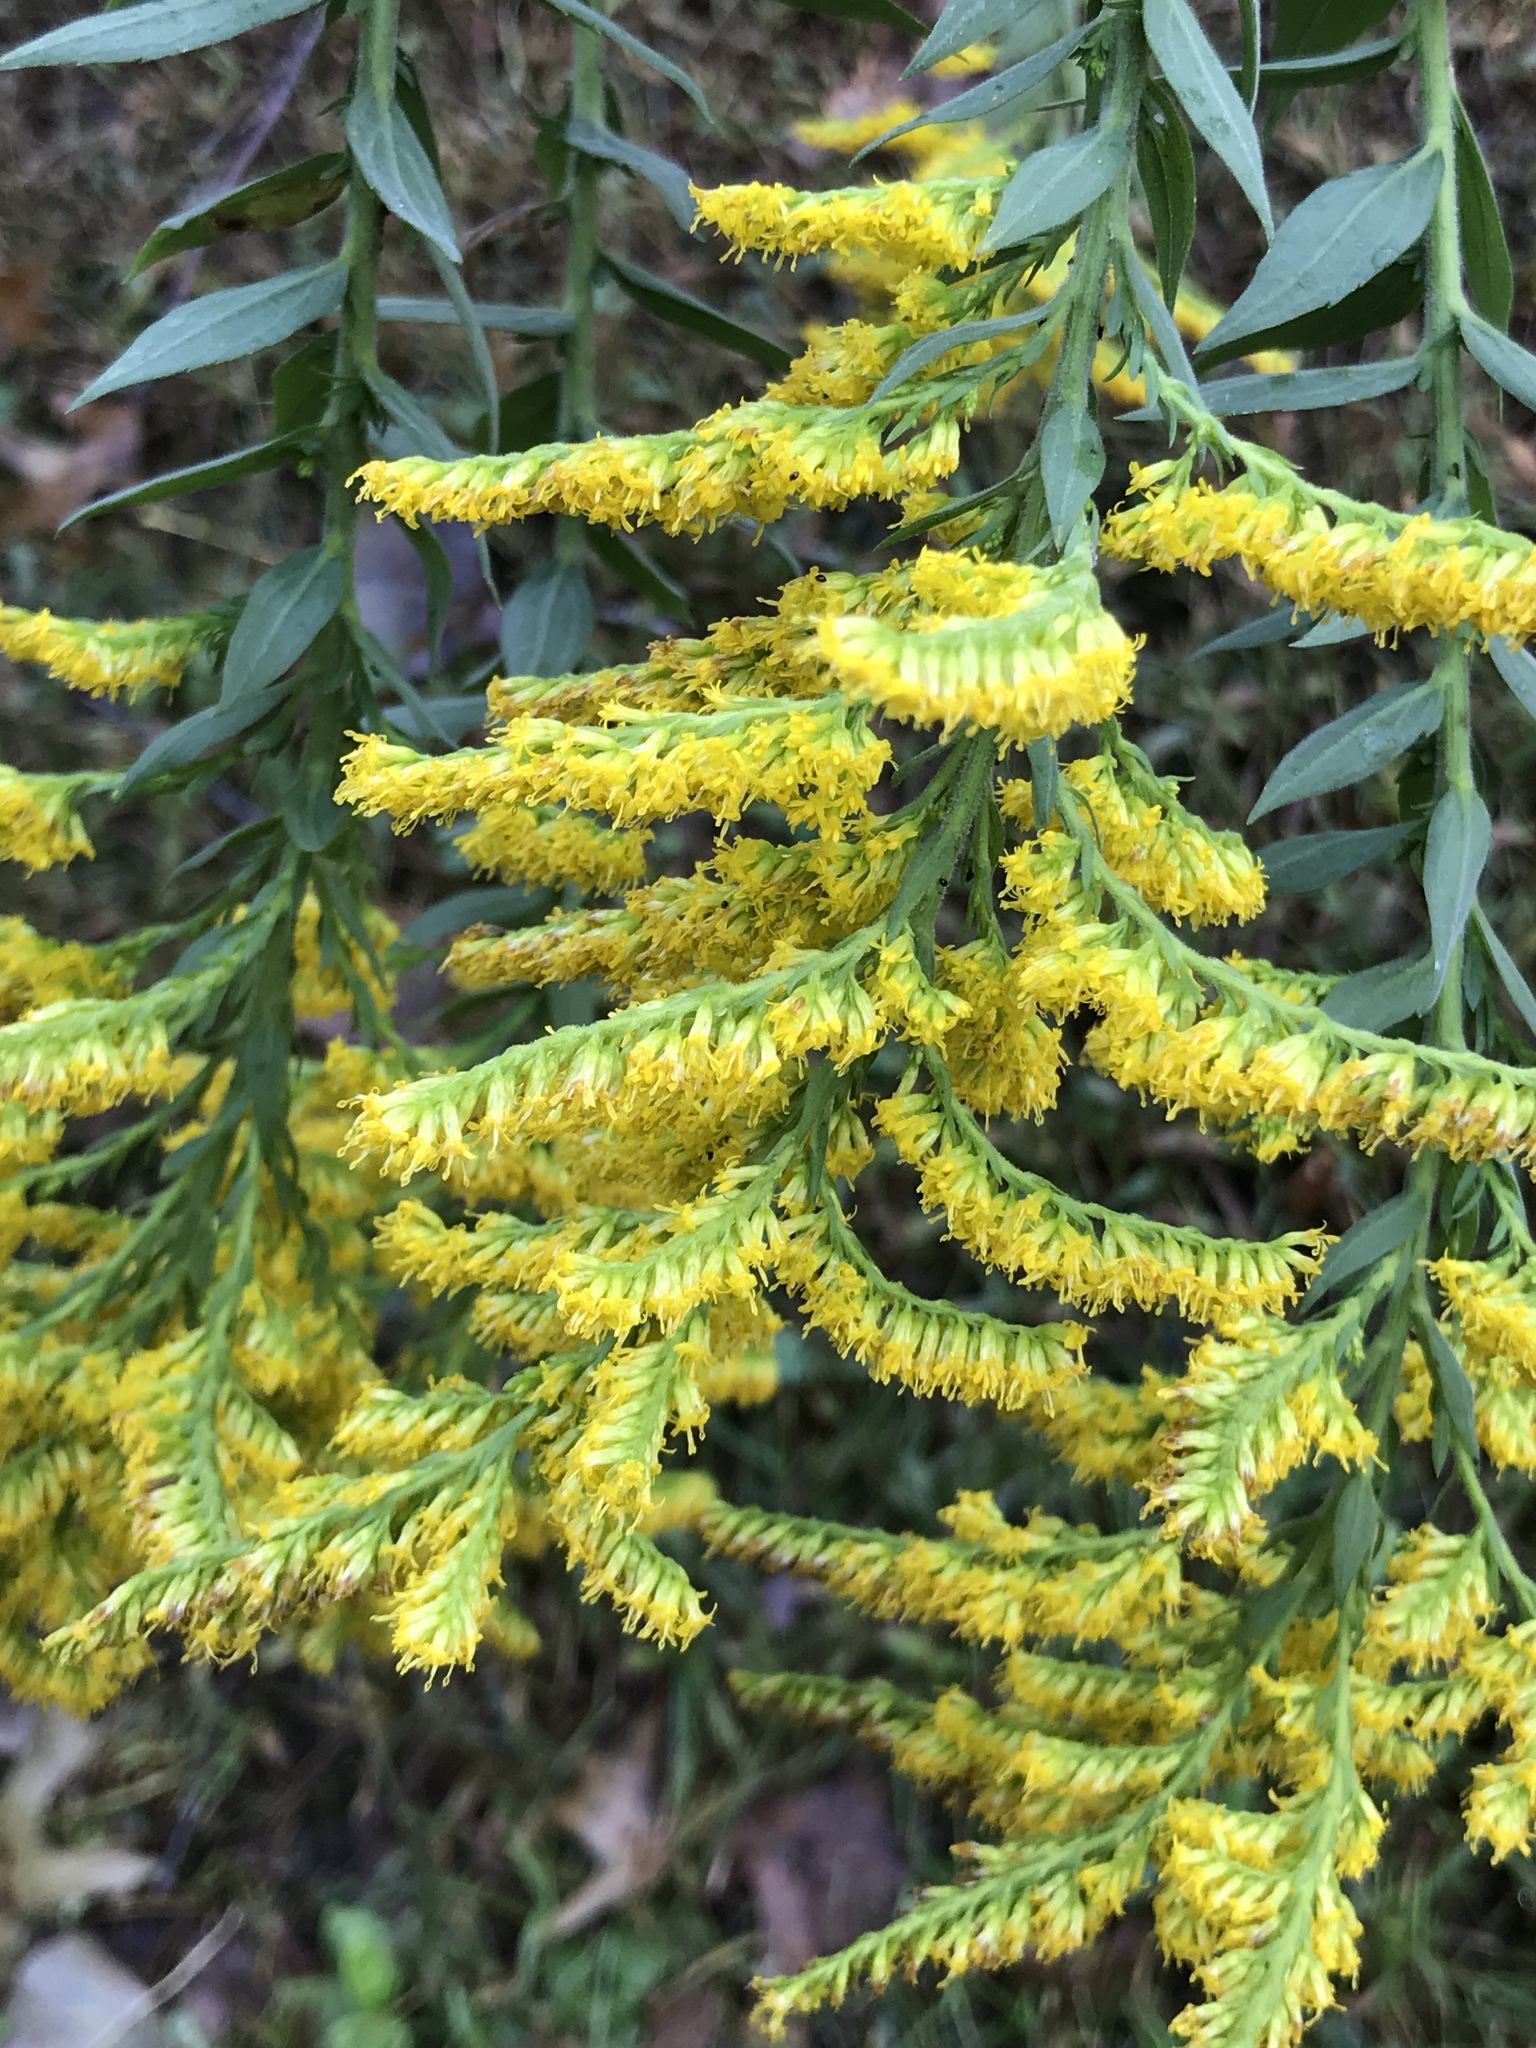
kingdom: Plantae
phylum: Tracheophyta
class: Magnoliopsida
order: Asterales
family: Asteraceae
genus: Solidago
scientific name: Solidago canadensis
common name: Canada goldenrod
